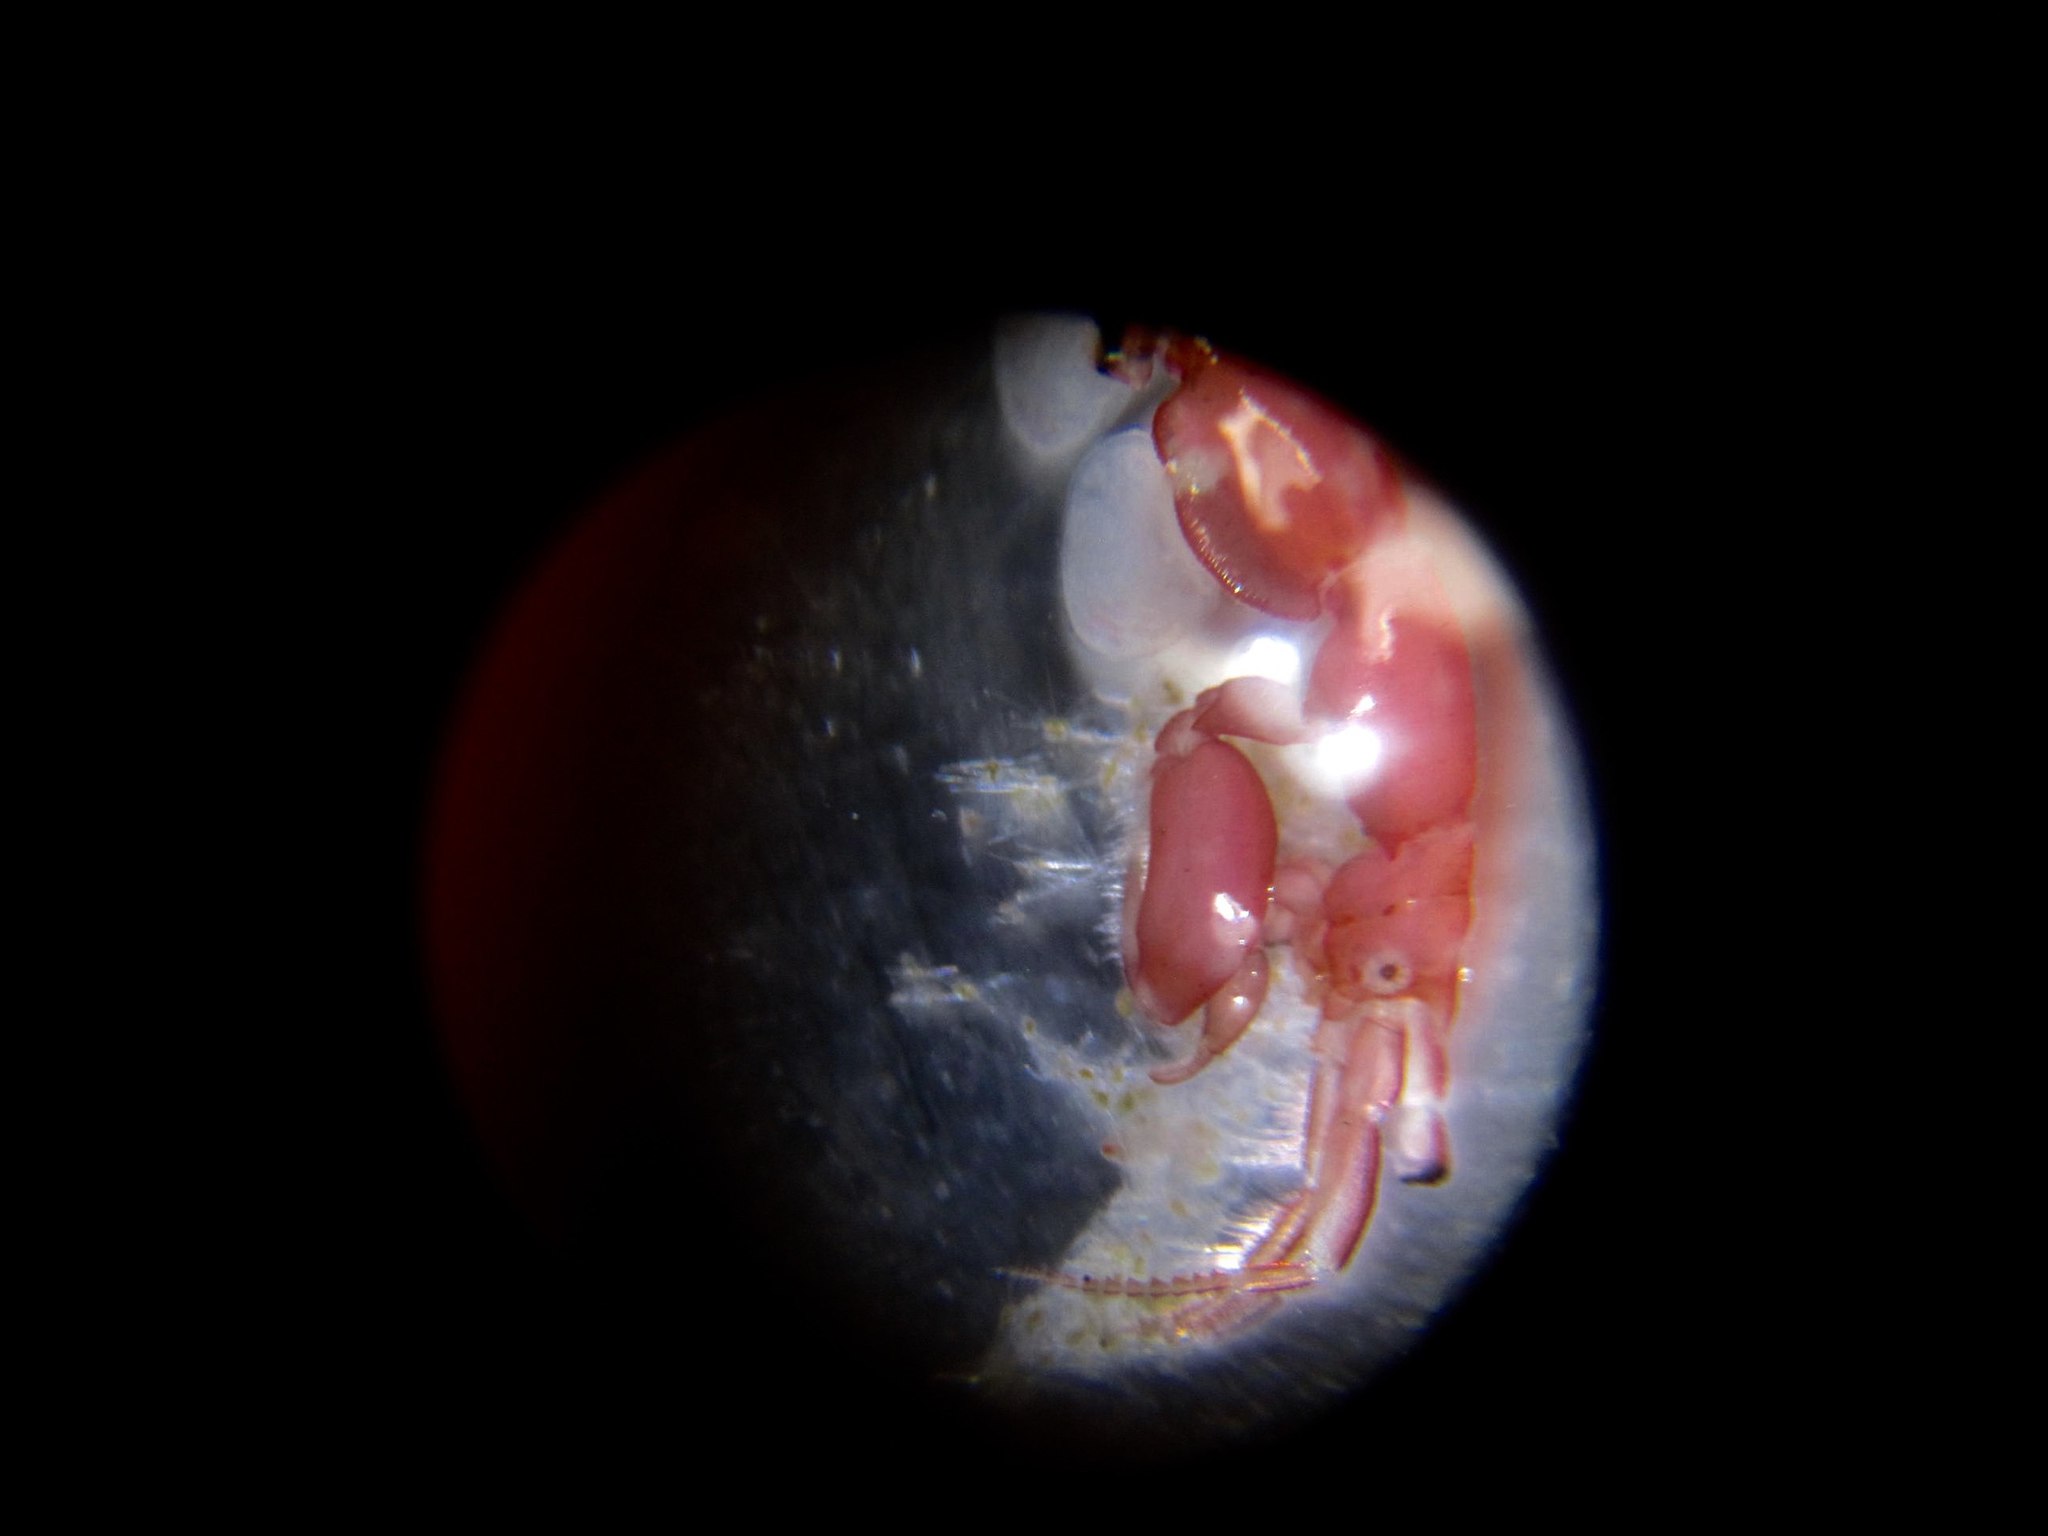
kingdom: Animalia
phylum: Arthropoda
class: Malacostraca
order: Amphipoda
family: Caprellidae
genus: Caprella
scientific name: Caprella penantis
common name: Skeleton shrimp
